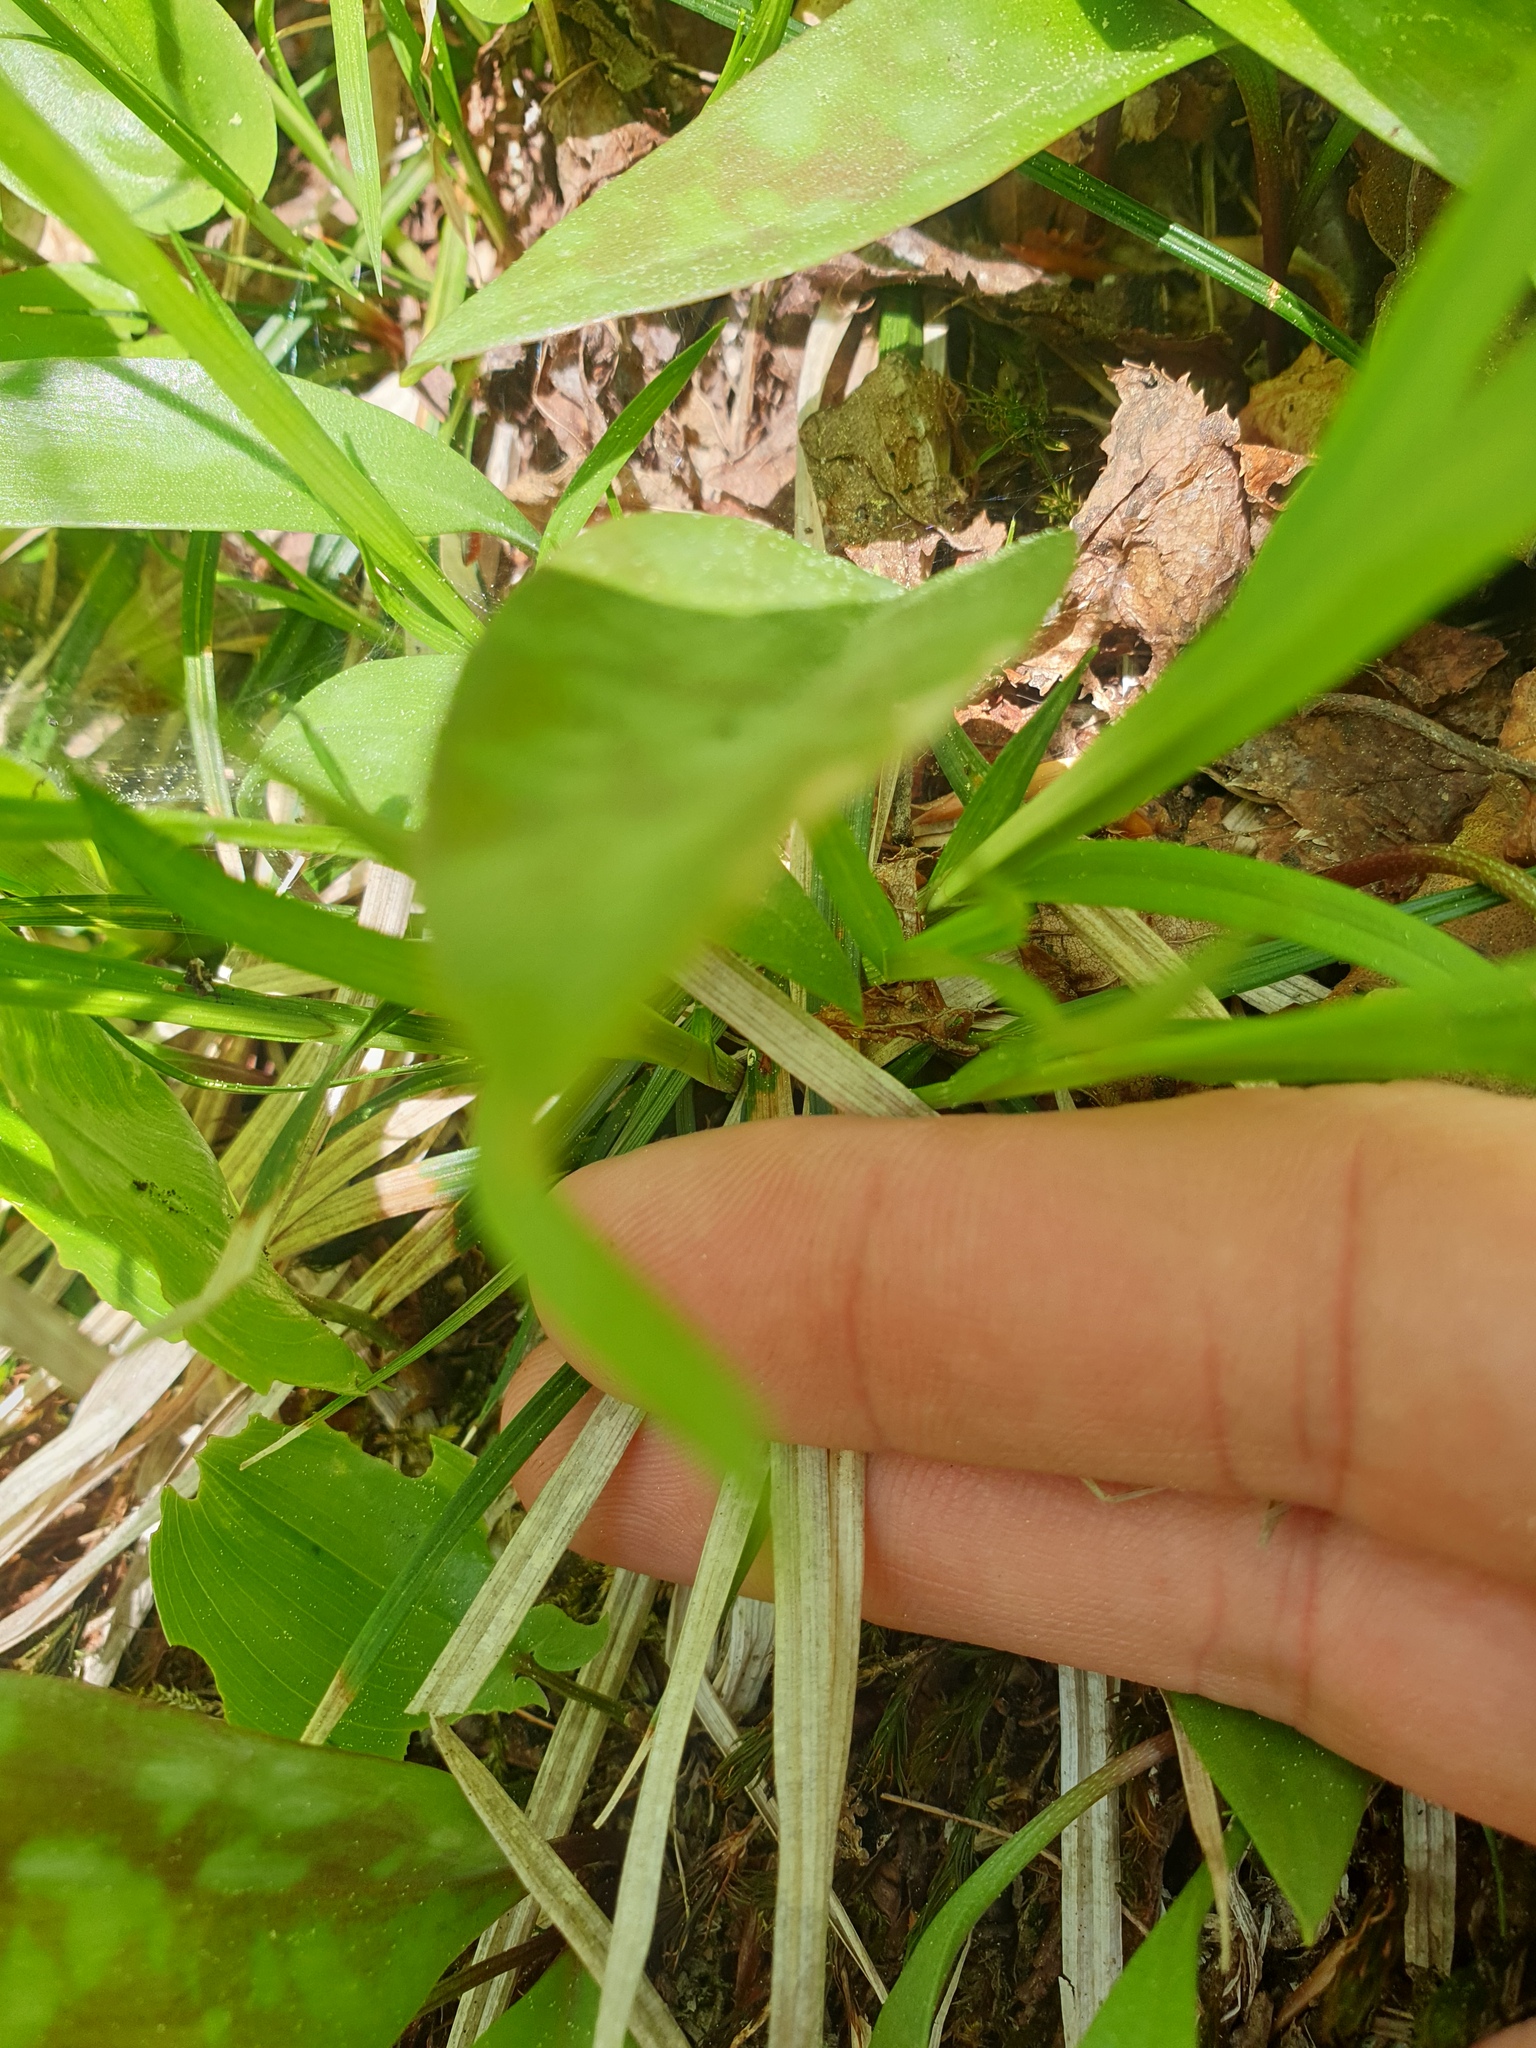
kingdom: Plantae
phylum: Tracheophyta
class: Liliopsida
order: Poales
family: Cyperaceae
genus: Carex
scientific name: Carex communis
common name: Colonial oak sedge
